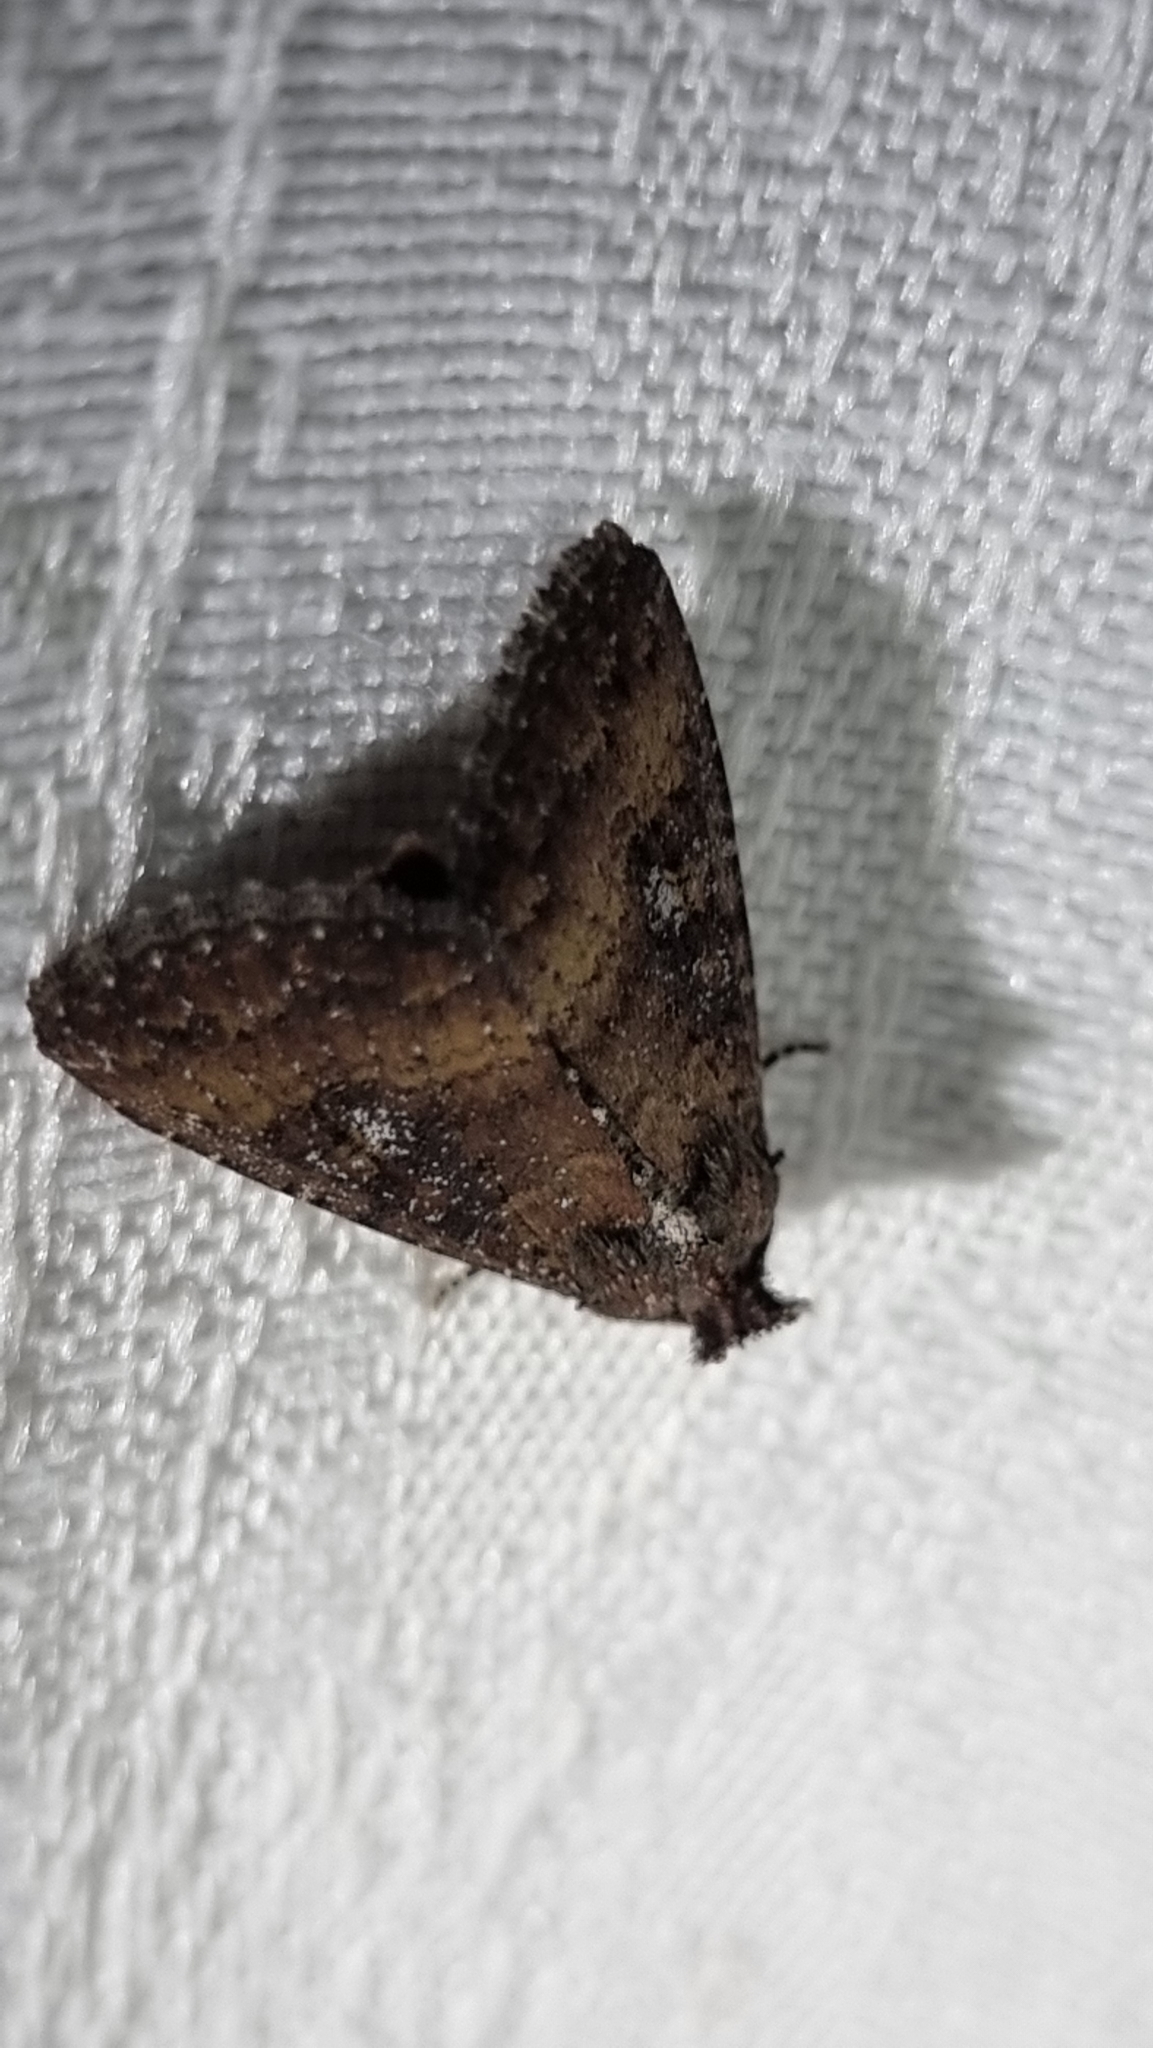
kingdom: Animalia
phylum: Arthropoda
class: Insecta
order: Lepidoptera
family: Noctuidae
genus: Condica
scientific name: Condica illecta
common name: Cutworm
